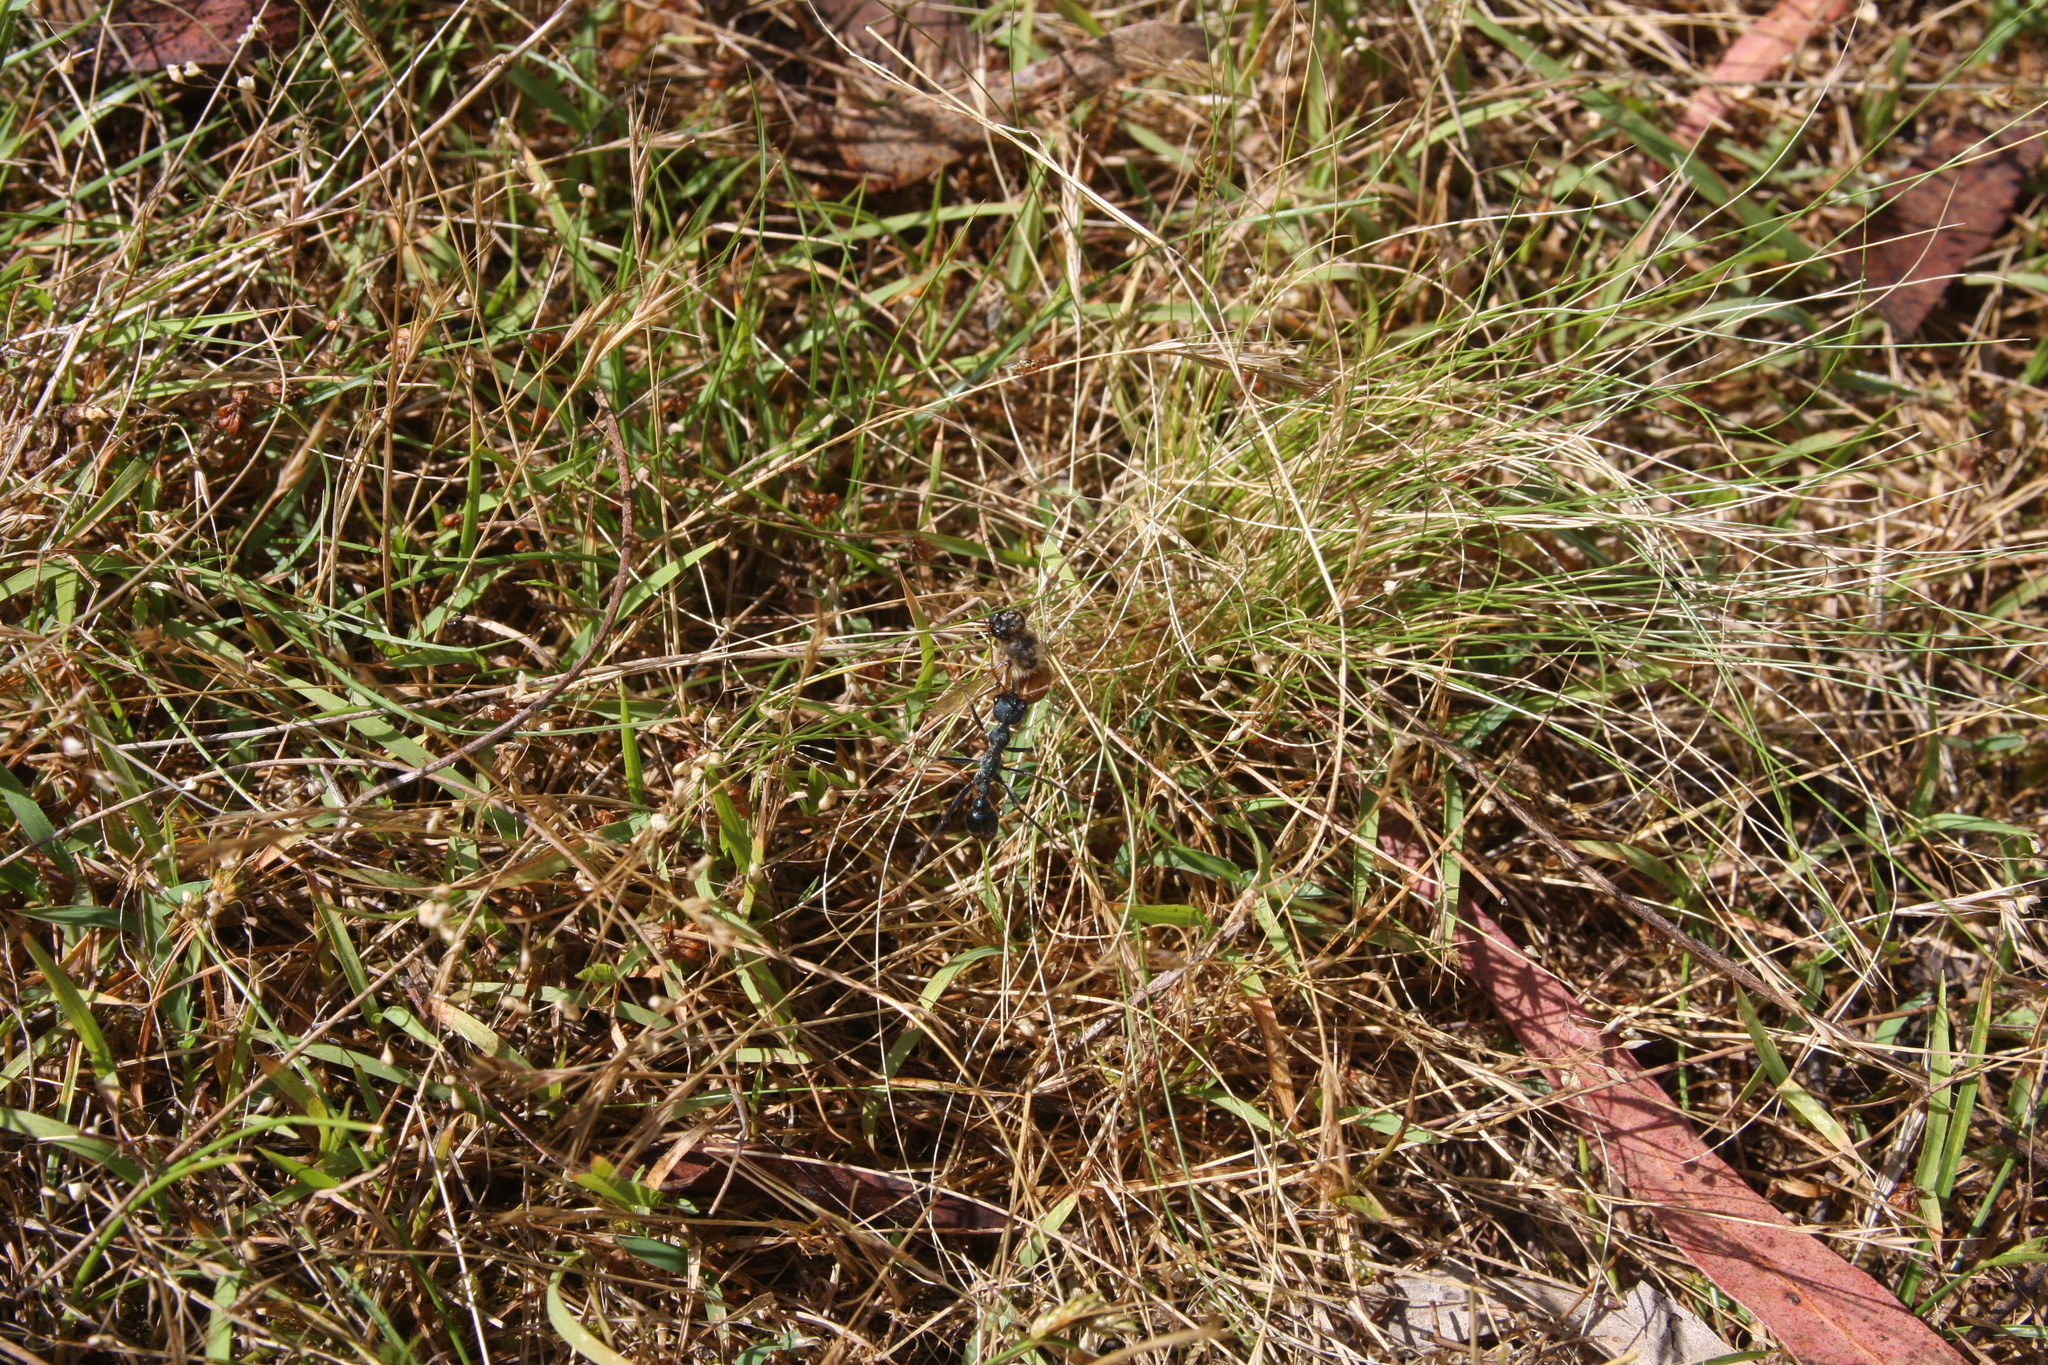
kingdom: Animalia
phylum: Arthropoda
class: Insecta
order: Hymenoptera
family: Formicidae
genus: Myrmecia
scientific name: Myrmecia tarsata
